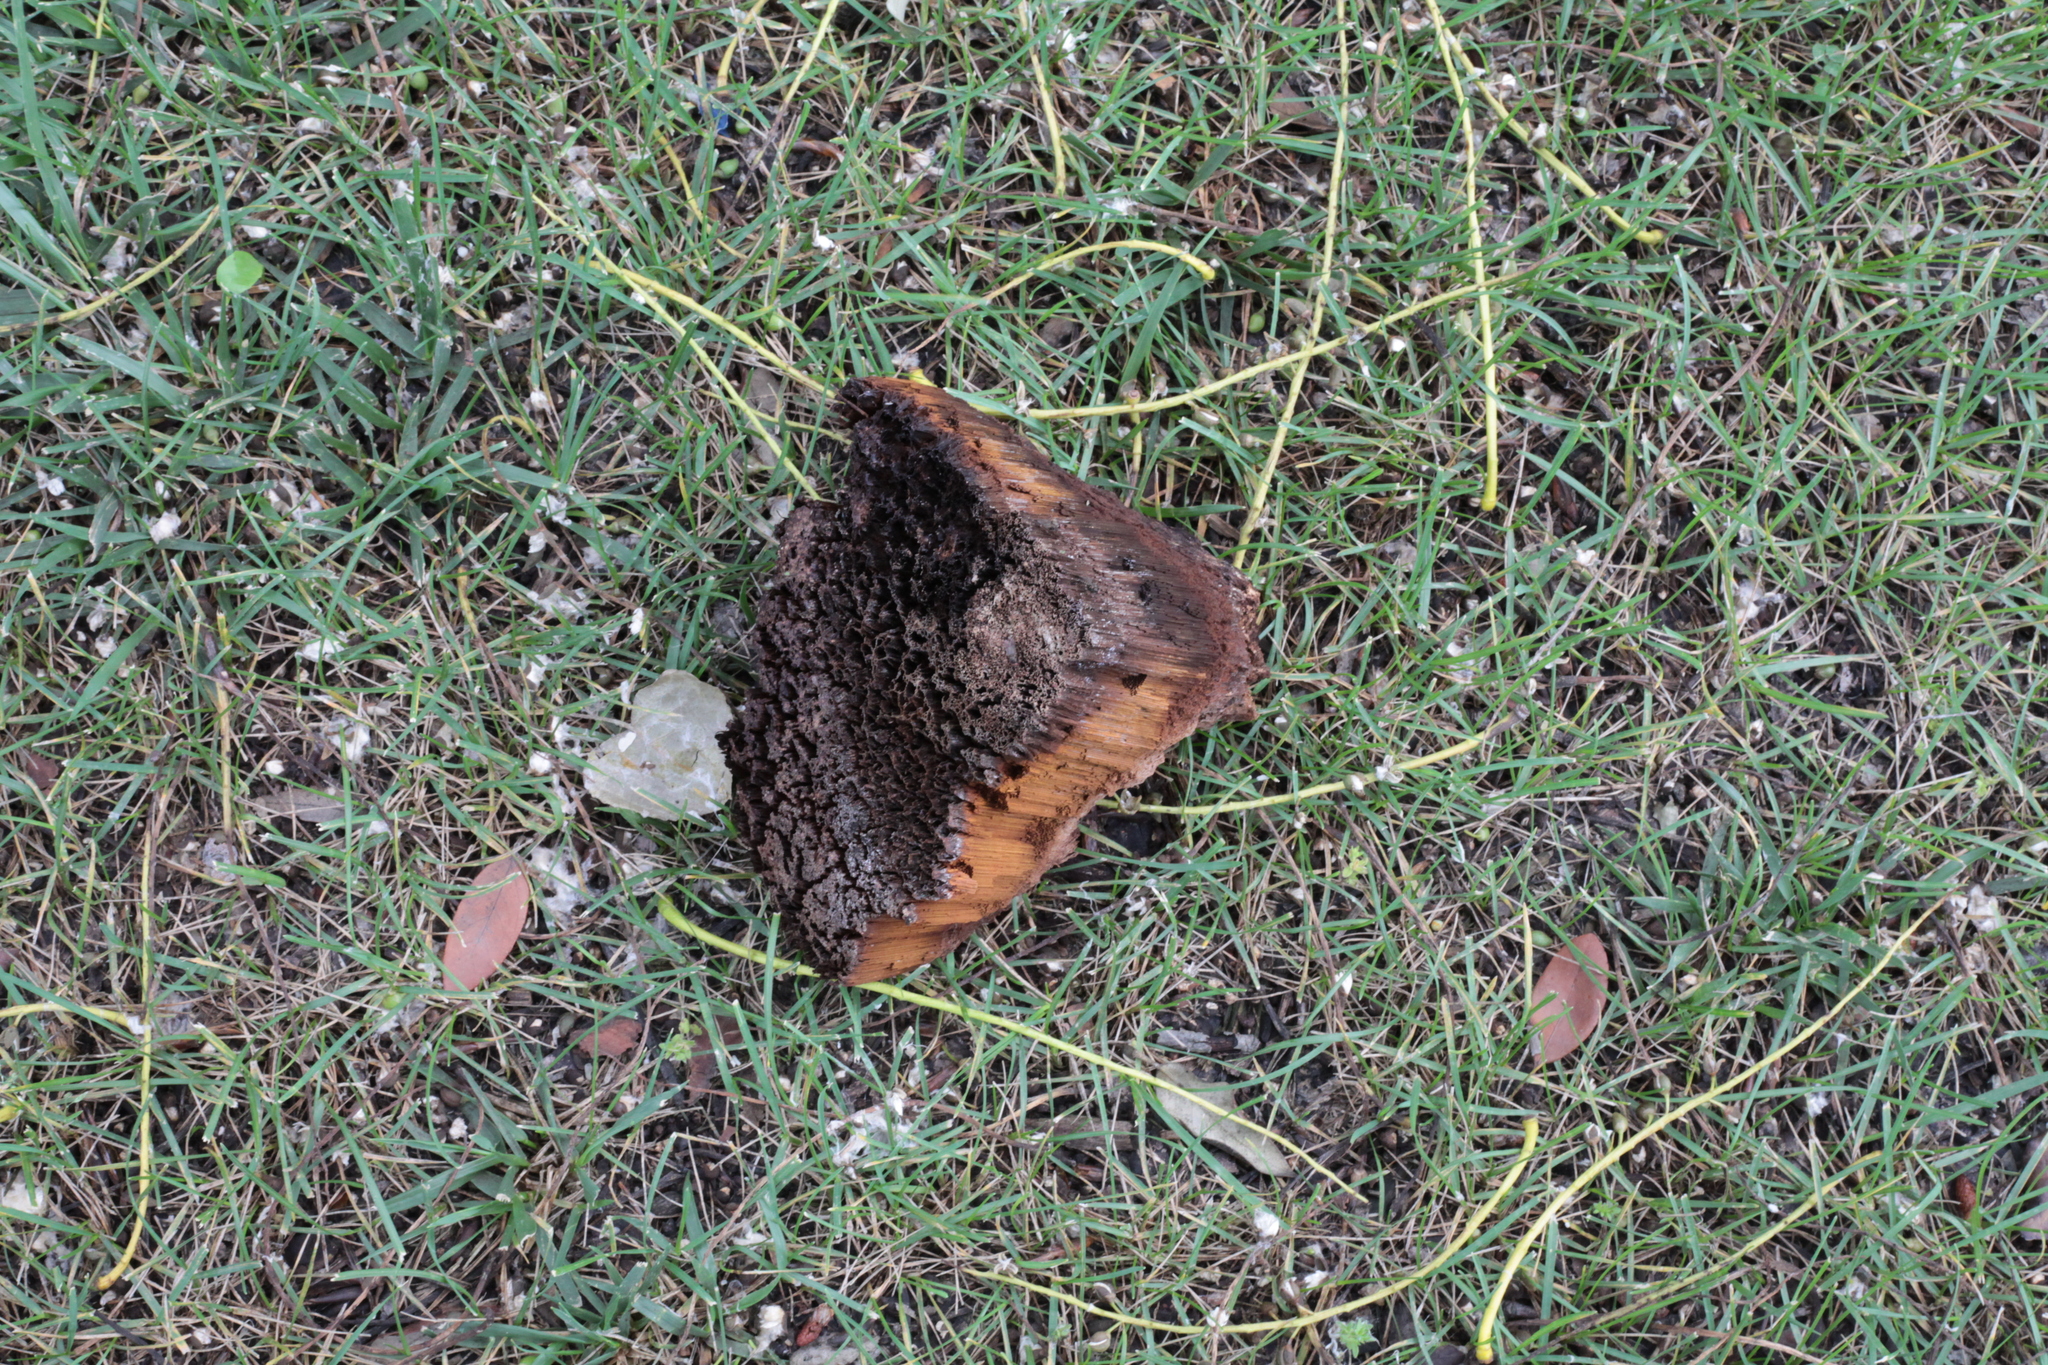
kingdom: Fungi
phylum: Basidiomycota
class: Agaricomycetes
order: Hymenochaetales
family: Hymenochaetaceae
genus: Inonotus
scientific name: Inonotus hispidus
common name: Shaggy bracket
